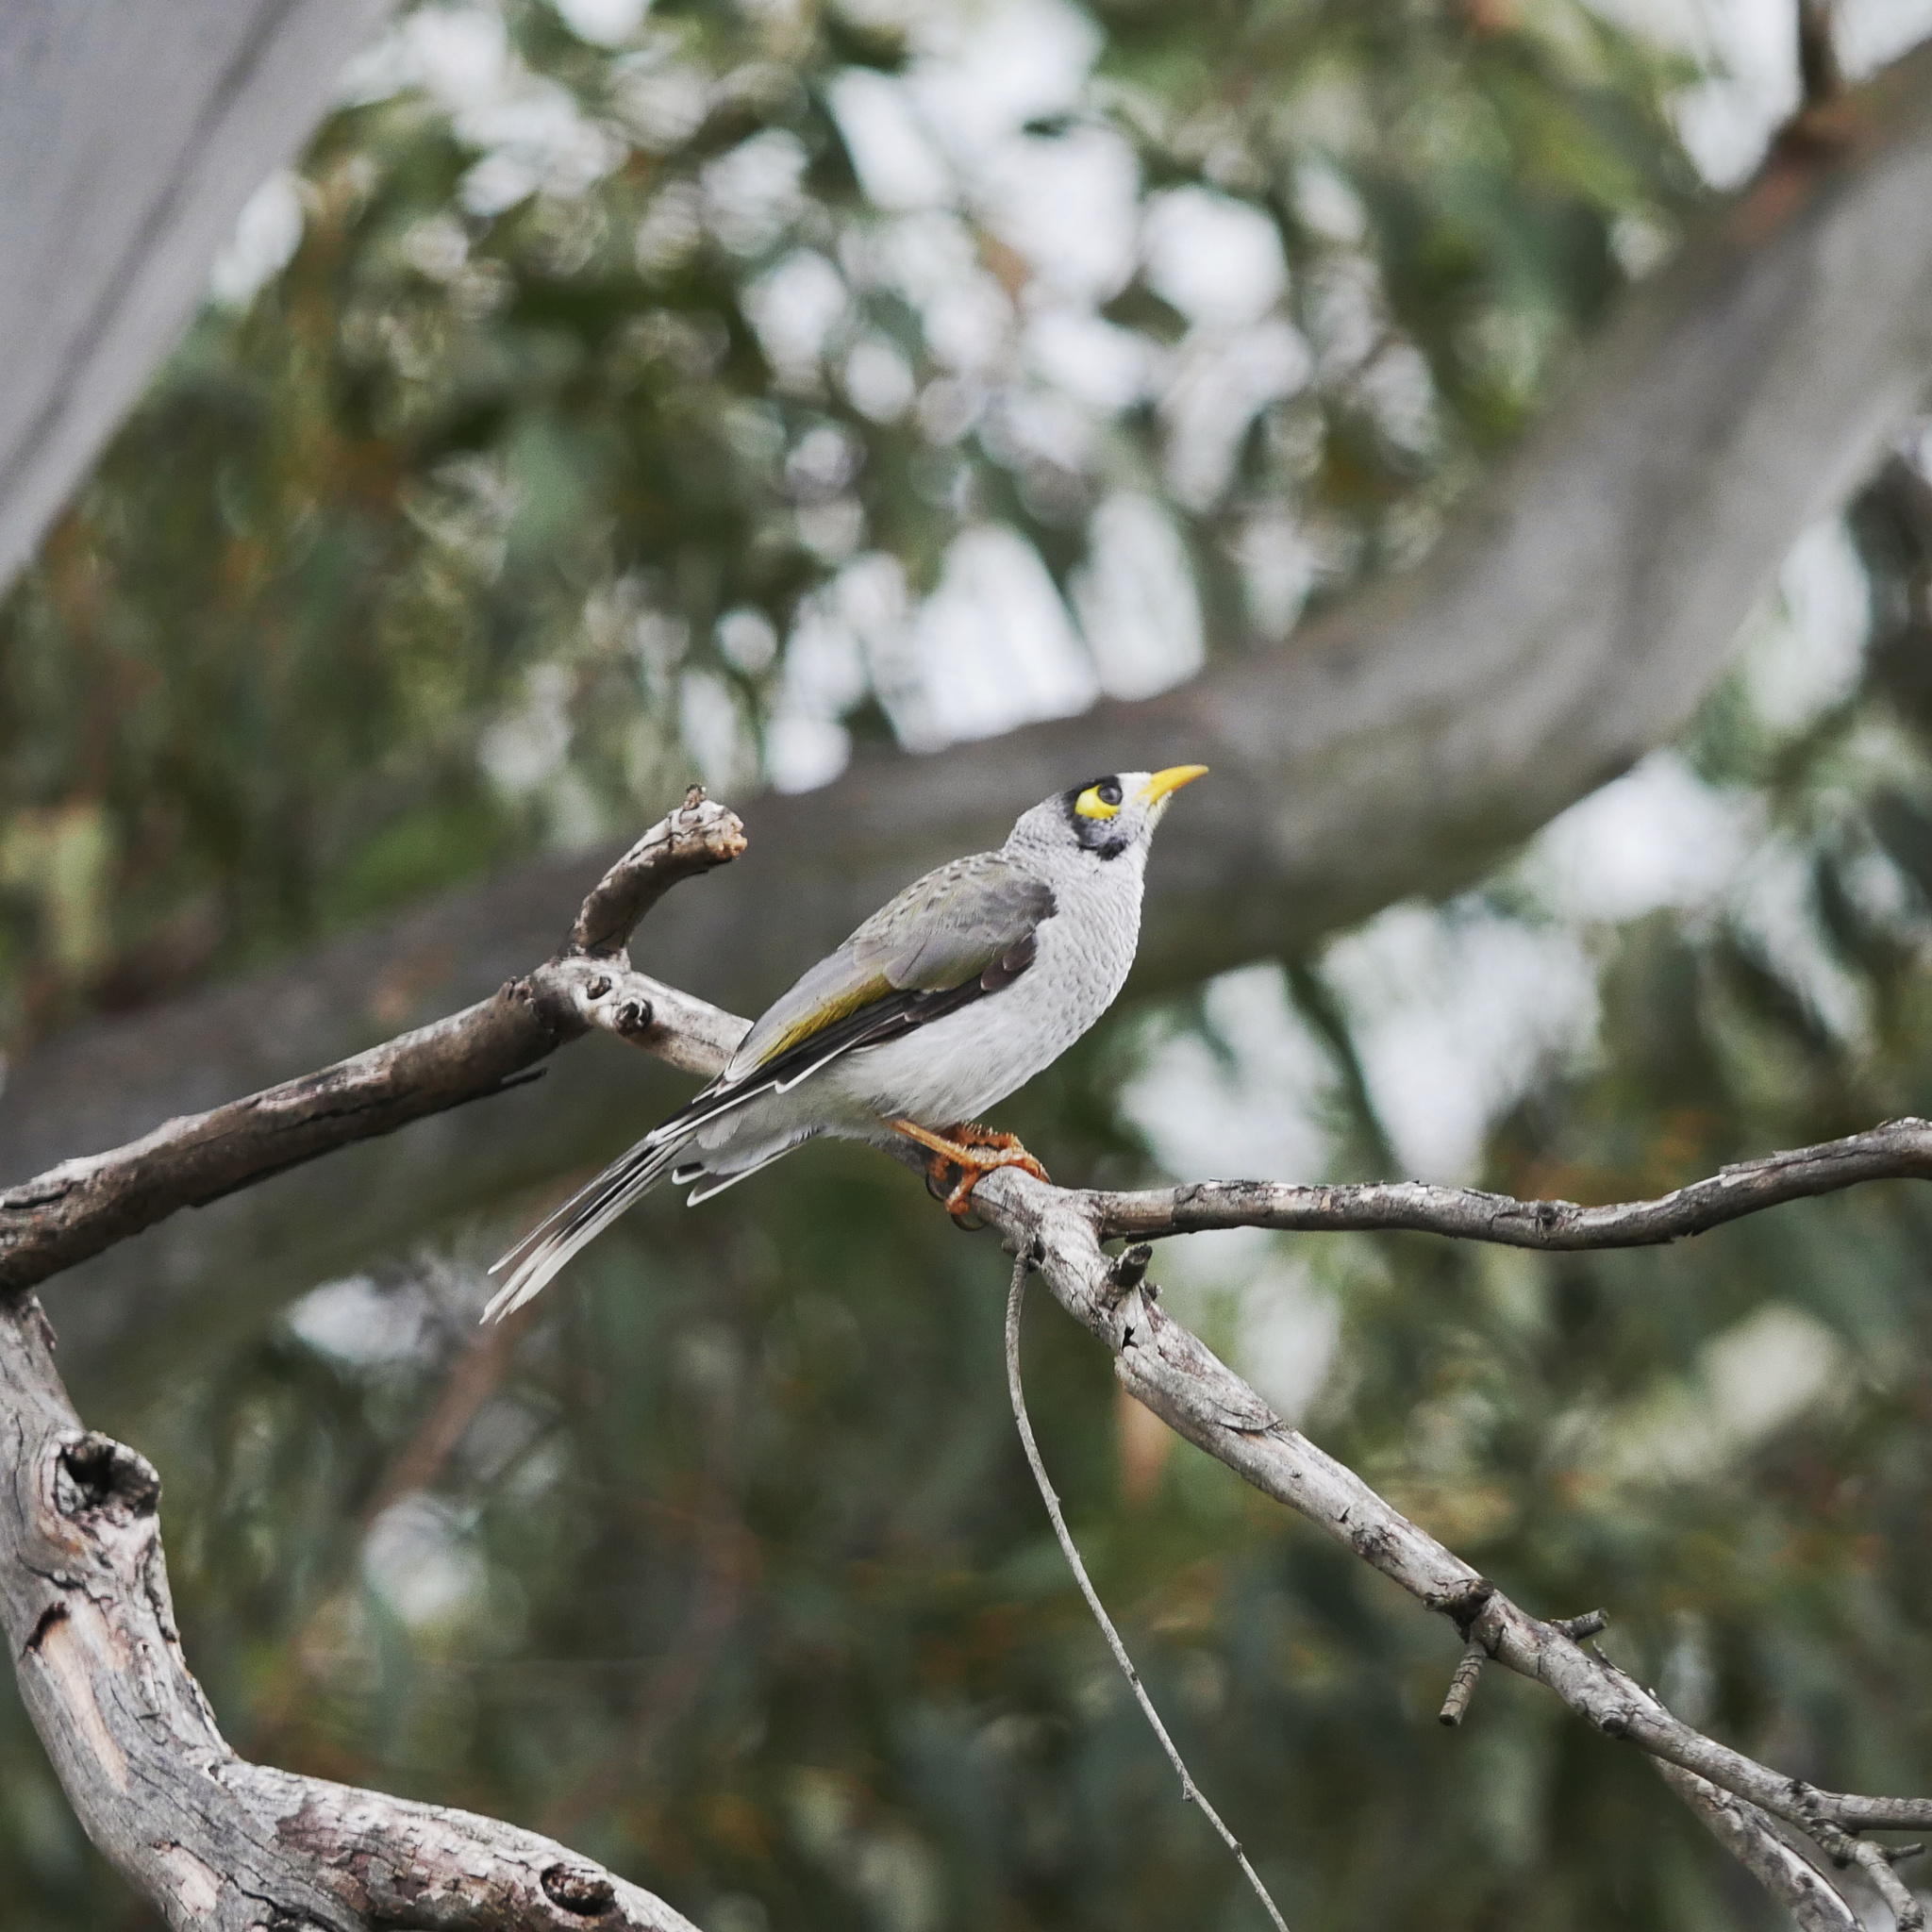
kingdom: Animalia
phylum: Chordata
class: Aves
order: Passeriformes
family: Meliphagidae
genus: Manorina
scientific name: Manorina melanocephala
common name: Noisy miner
